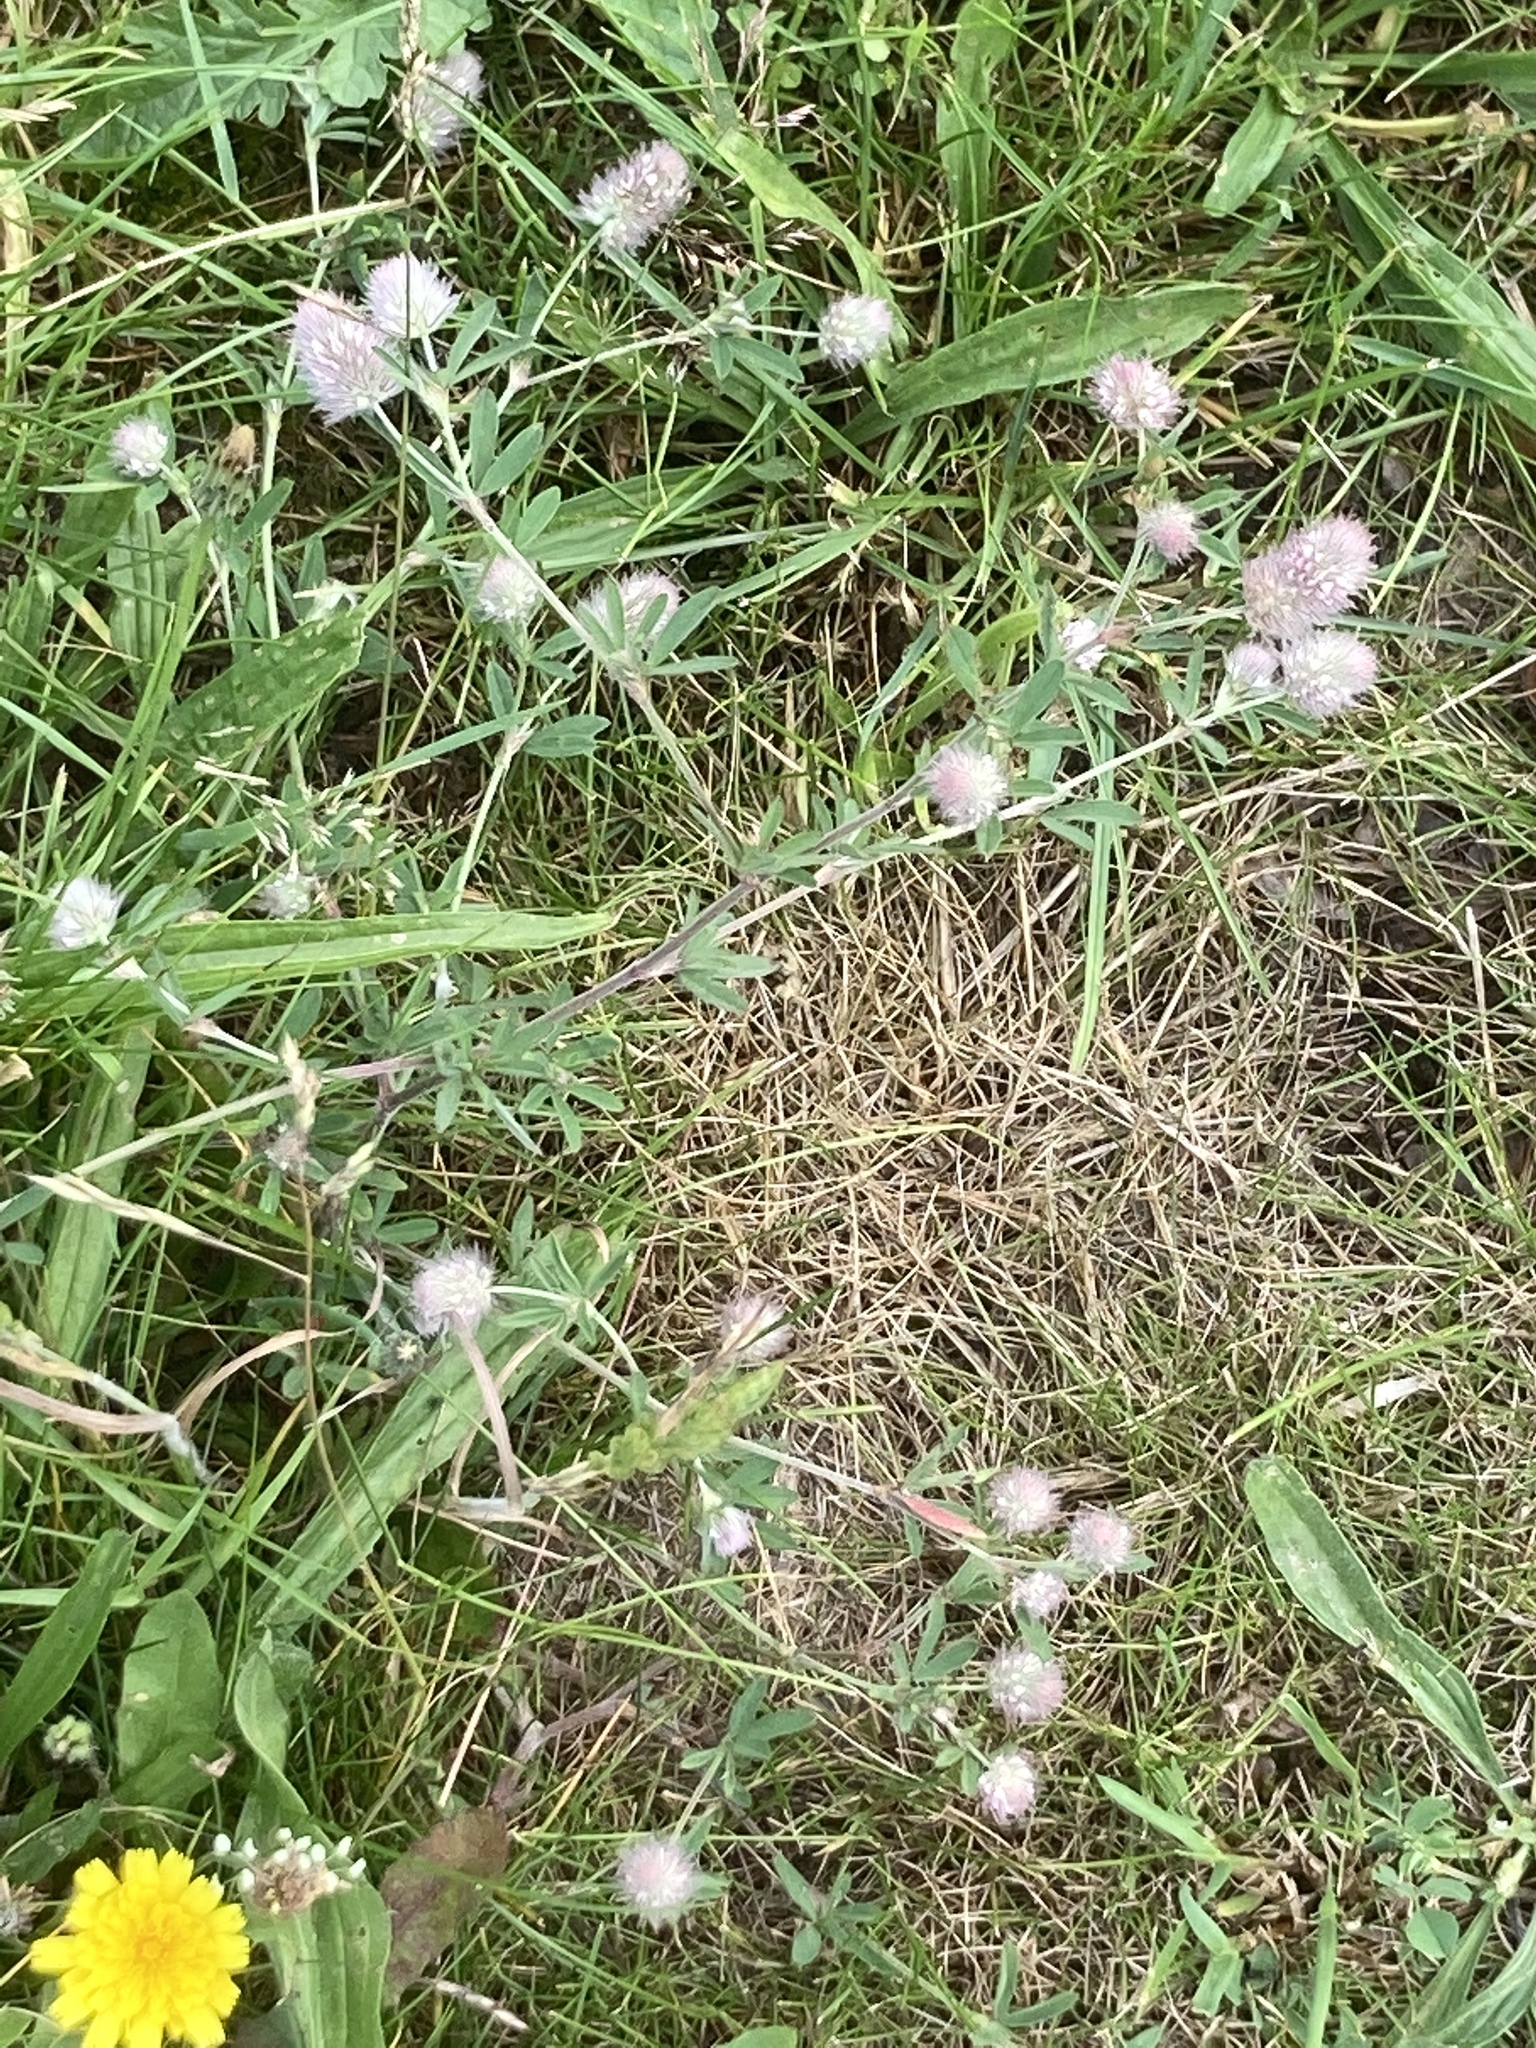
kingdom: Plantae
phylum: Tracheophyta
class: Magnoliopsida
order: Fabales
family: Fabaceae
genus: Trifolium
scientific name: Trifolium arvense
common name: Hare's-foot clover
